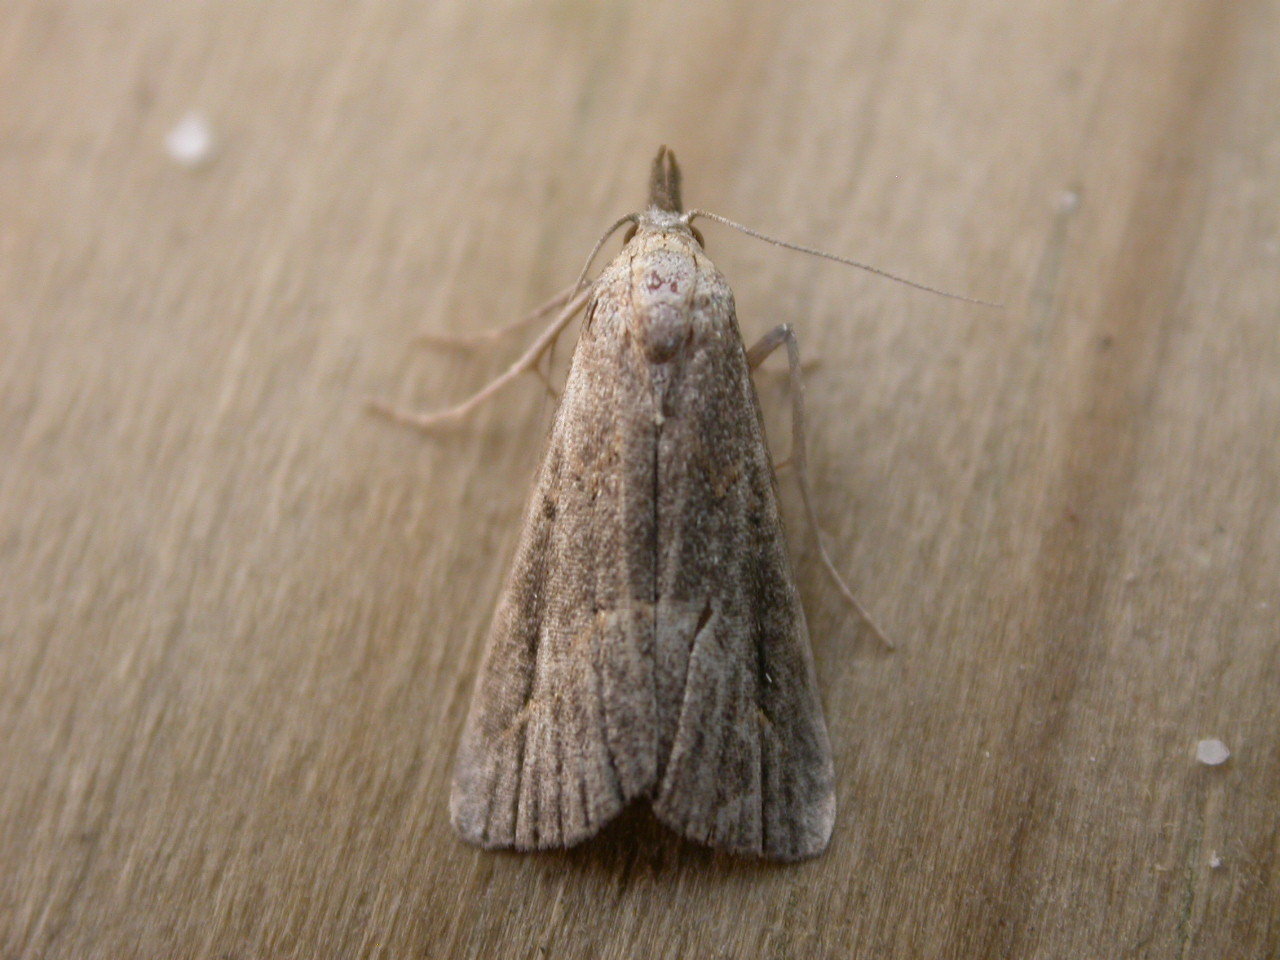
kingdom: Animalia
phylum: Arthropoda
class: Insecta
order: Lepidoptera
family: Erebidae
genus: Schrankia
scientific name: Schrankia costaestrigalis
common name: Pinion-streaked snout
